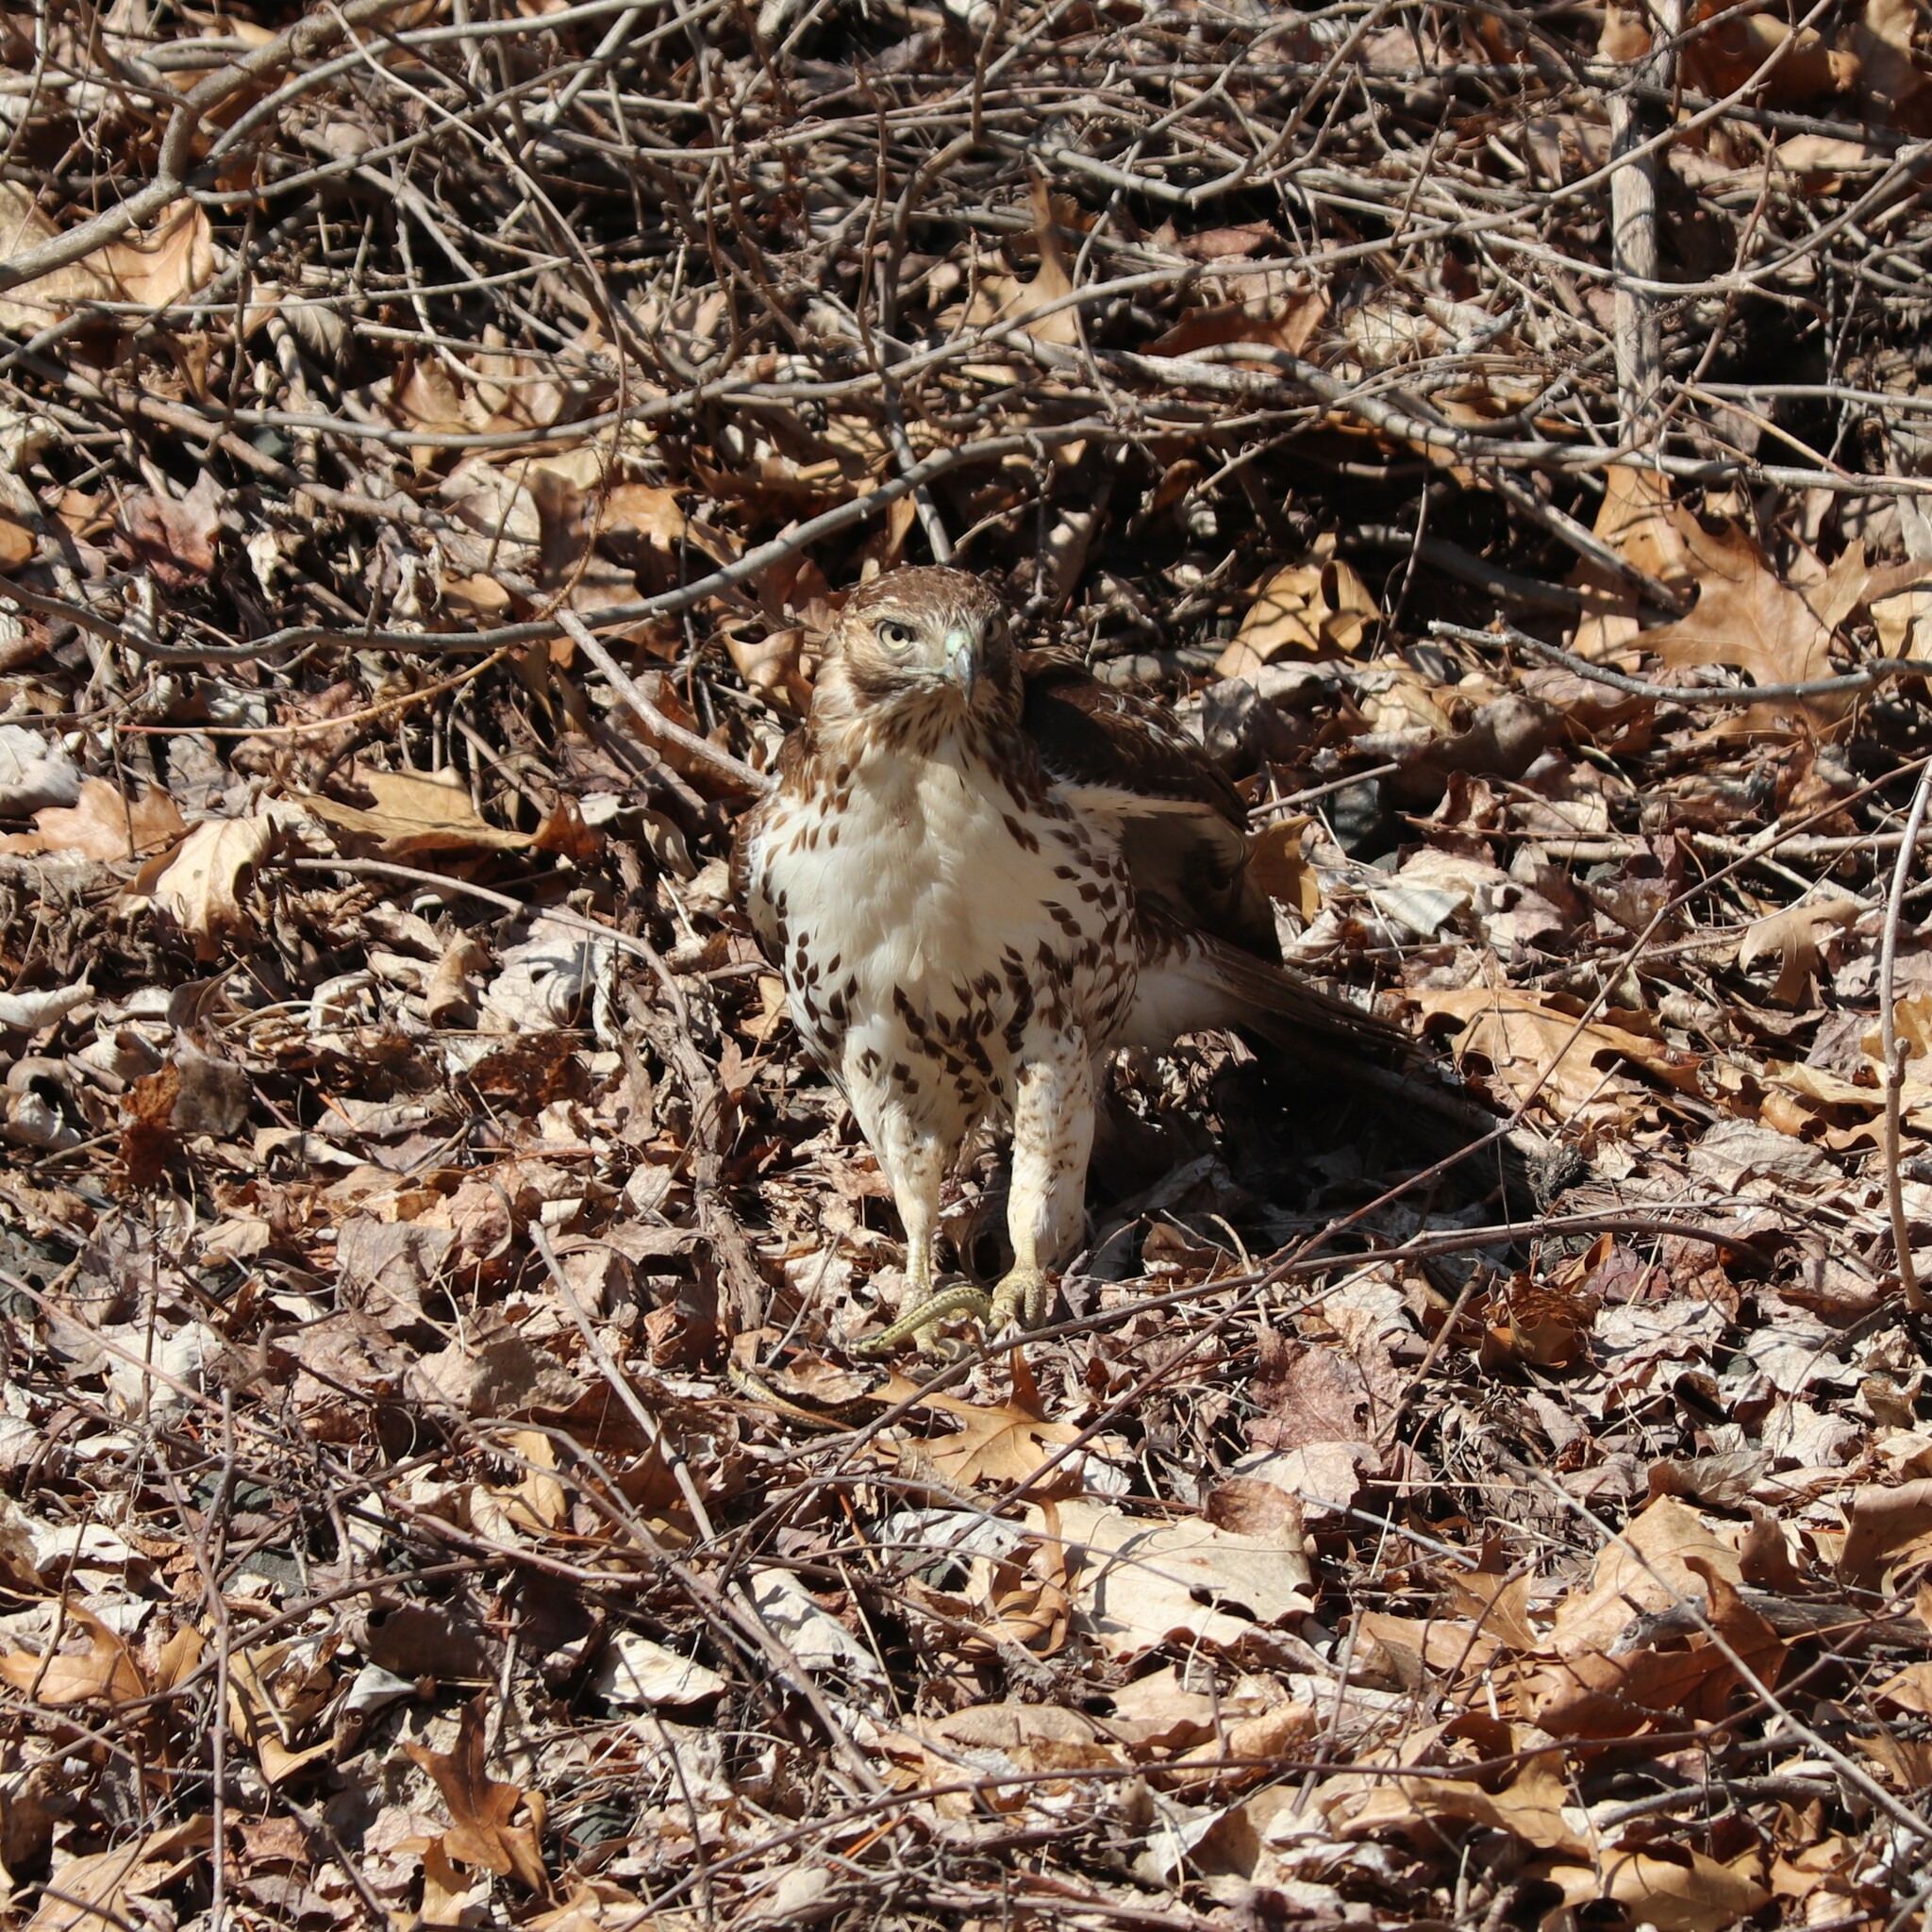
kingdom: Animalia
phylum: Chordata
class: Aves
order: Accipitriformes
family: Accipitridae
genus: Buteo
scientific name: Buteo jamaicensis
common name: Red-tailed hawk
